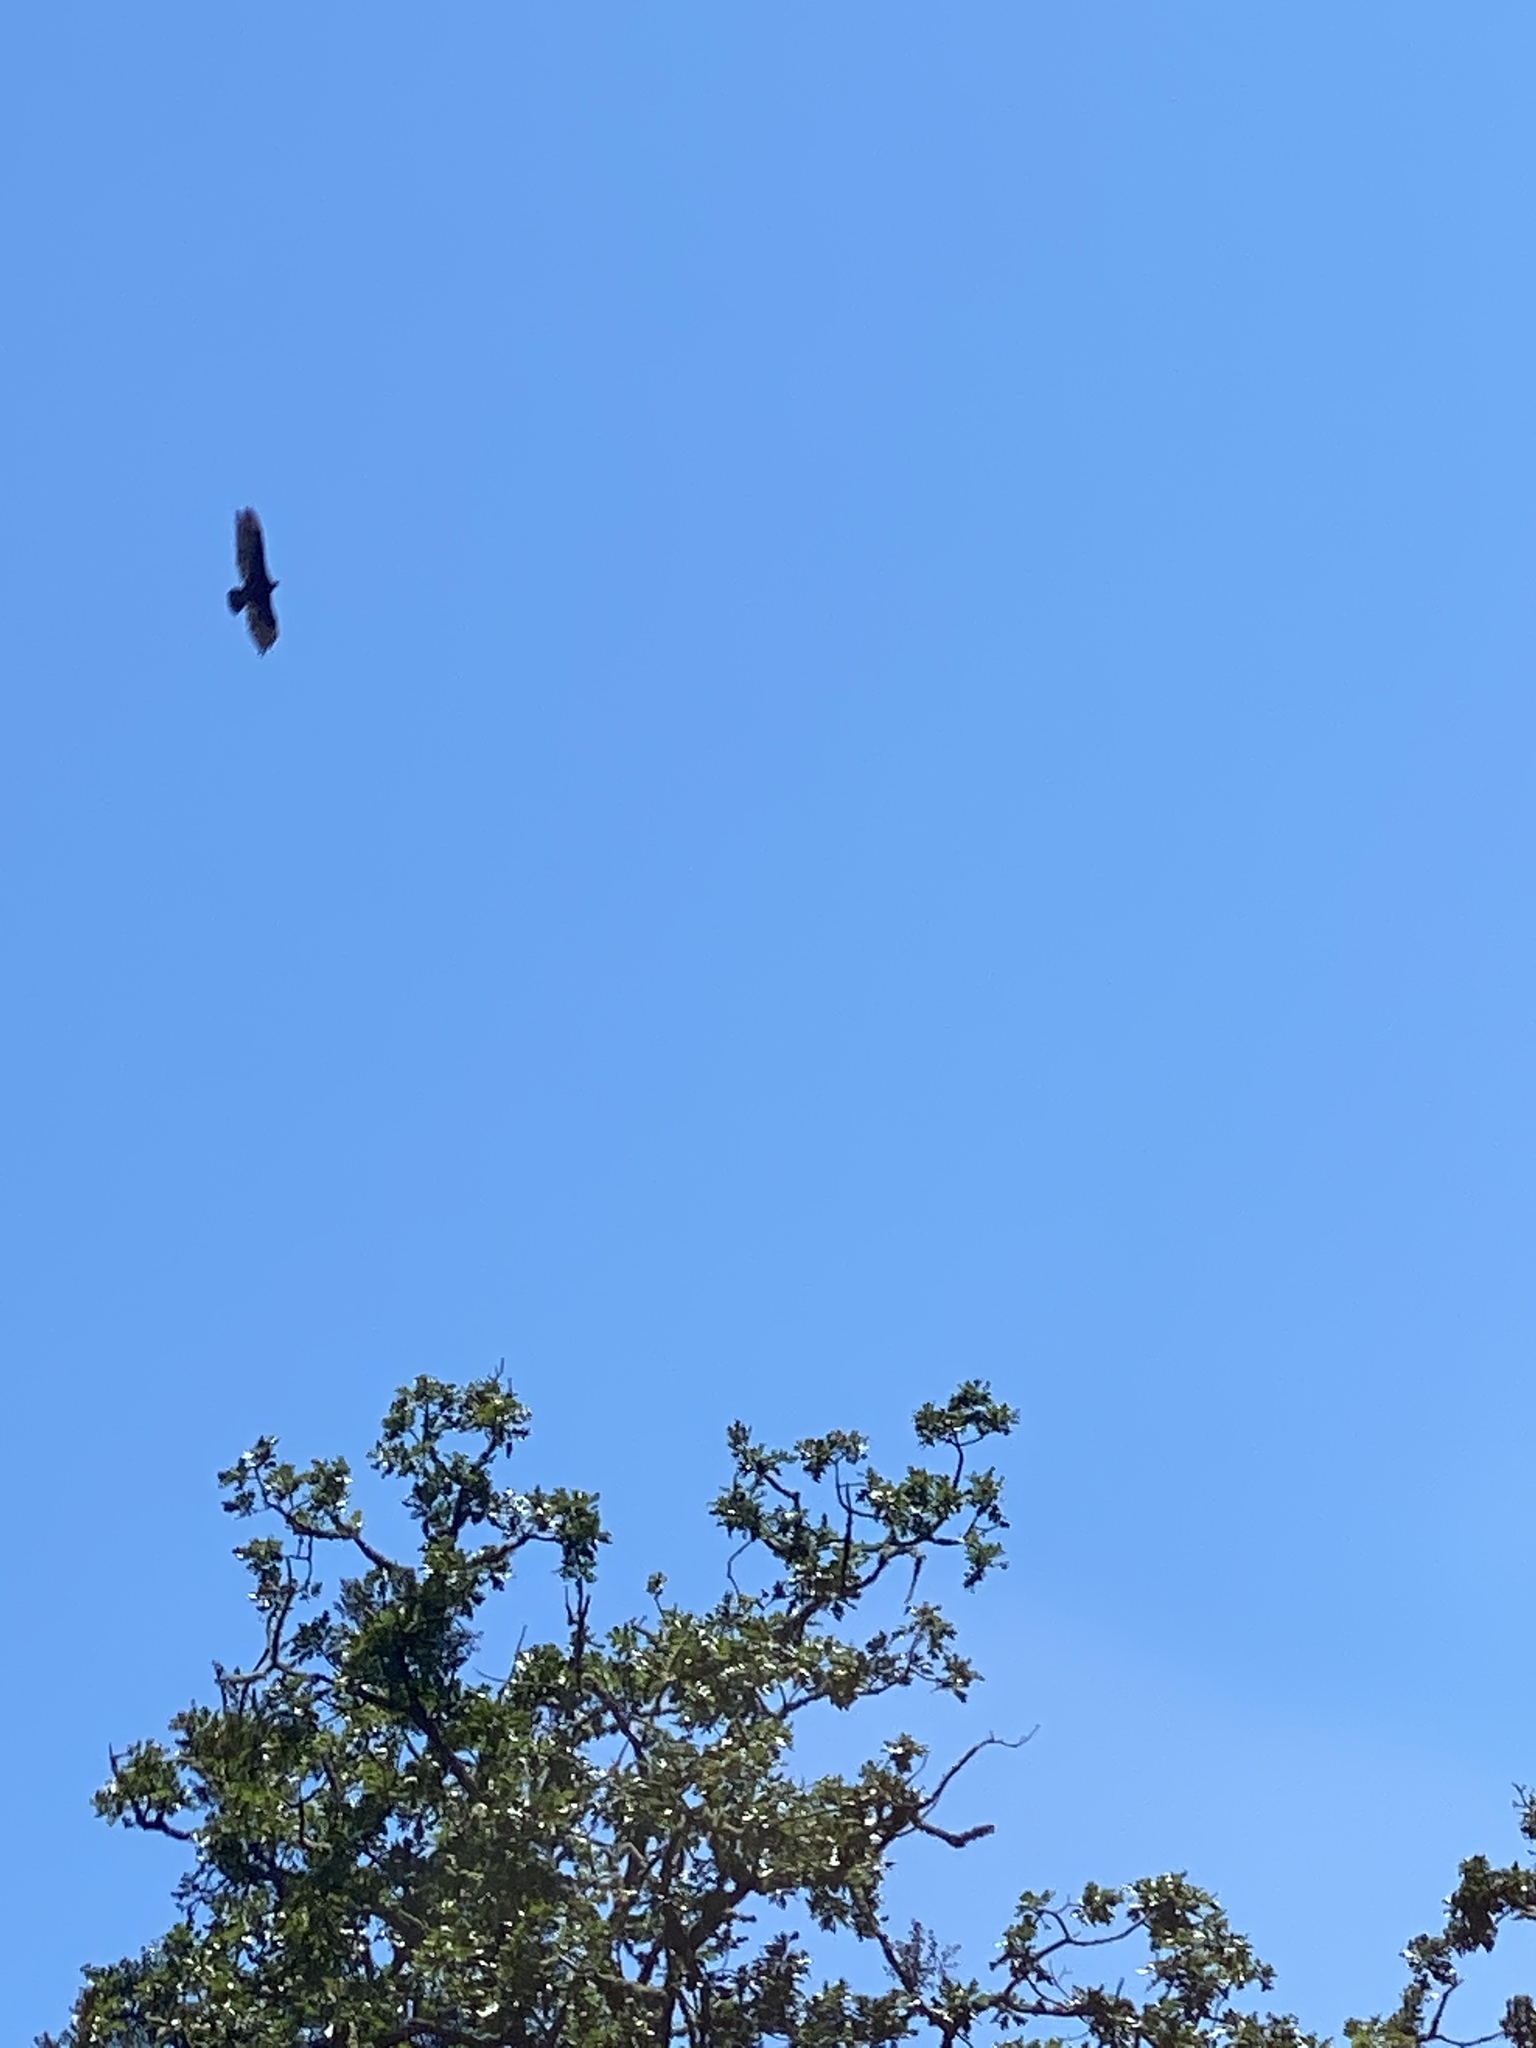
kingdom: Animalia
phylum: Chordata
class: Aves
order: Accipitriformes
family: Cathartidae
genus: Cathartes
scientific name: Cathartes aura
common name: Turkey vulture
